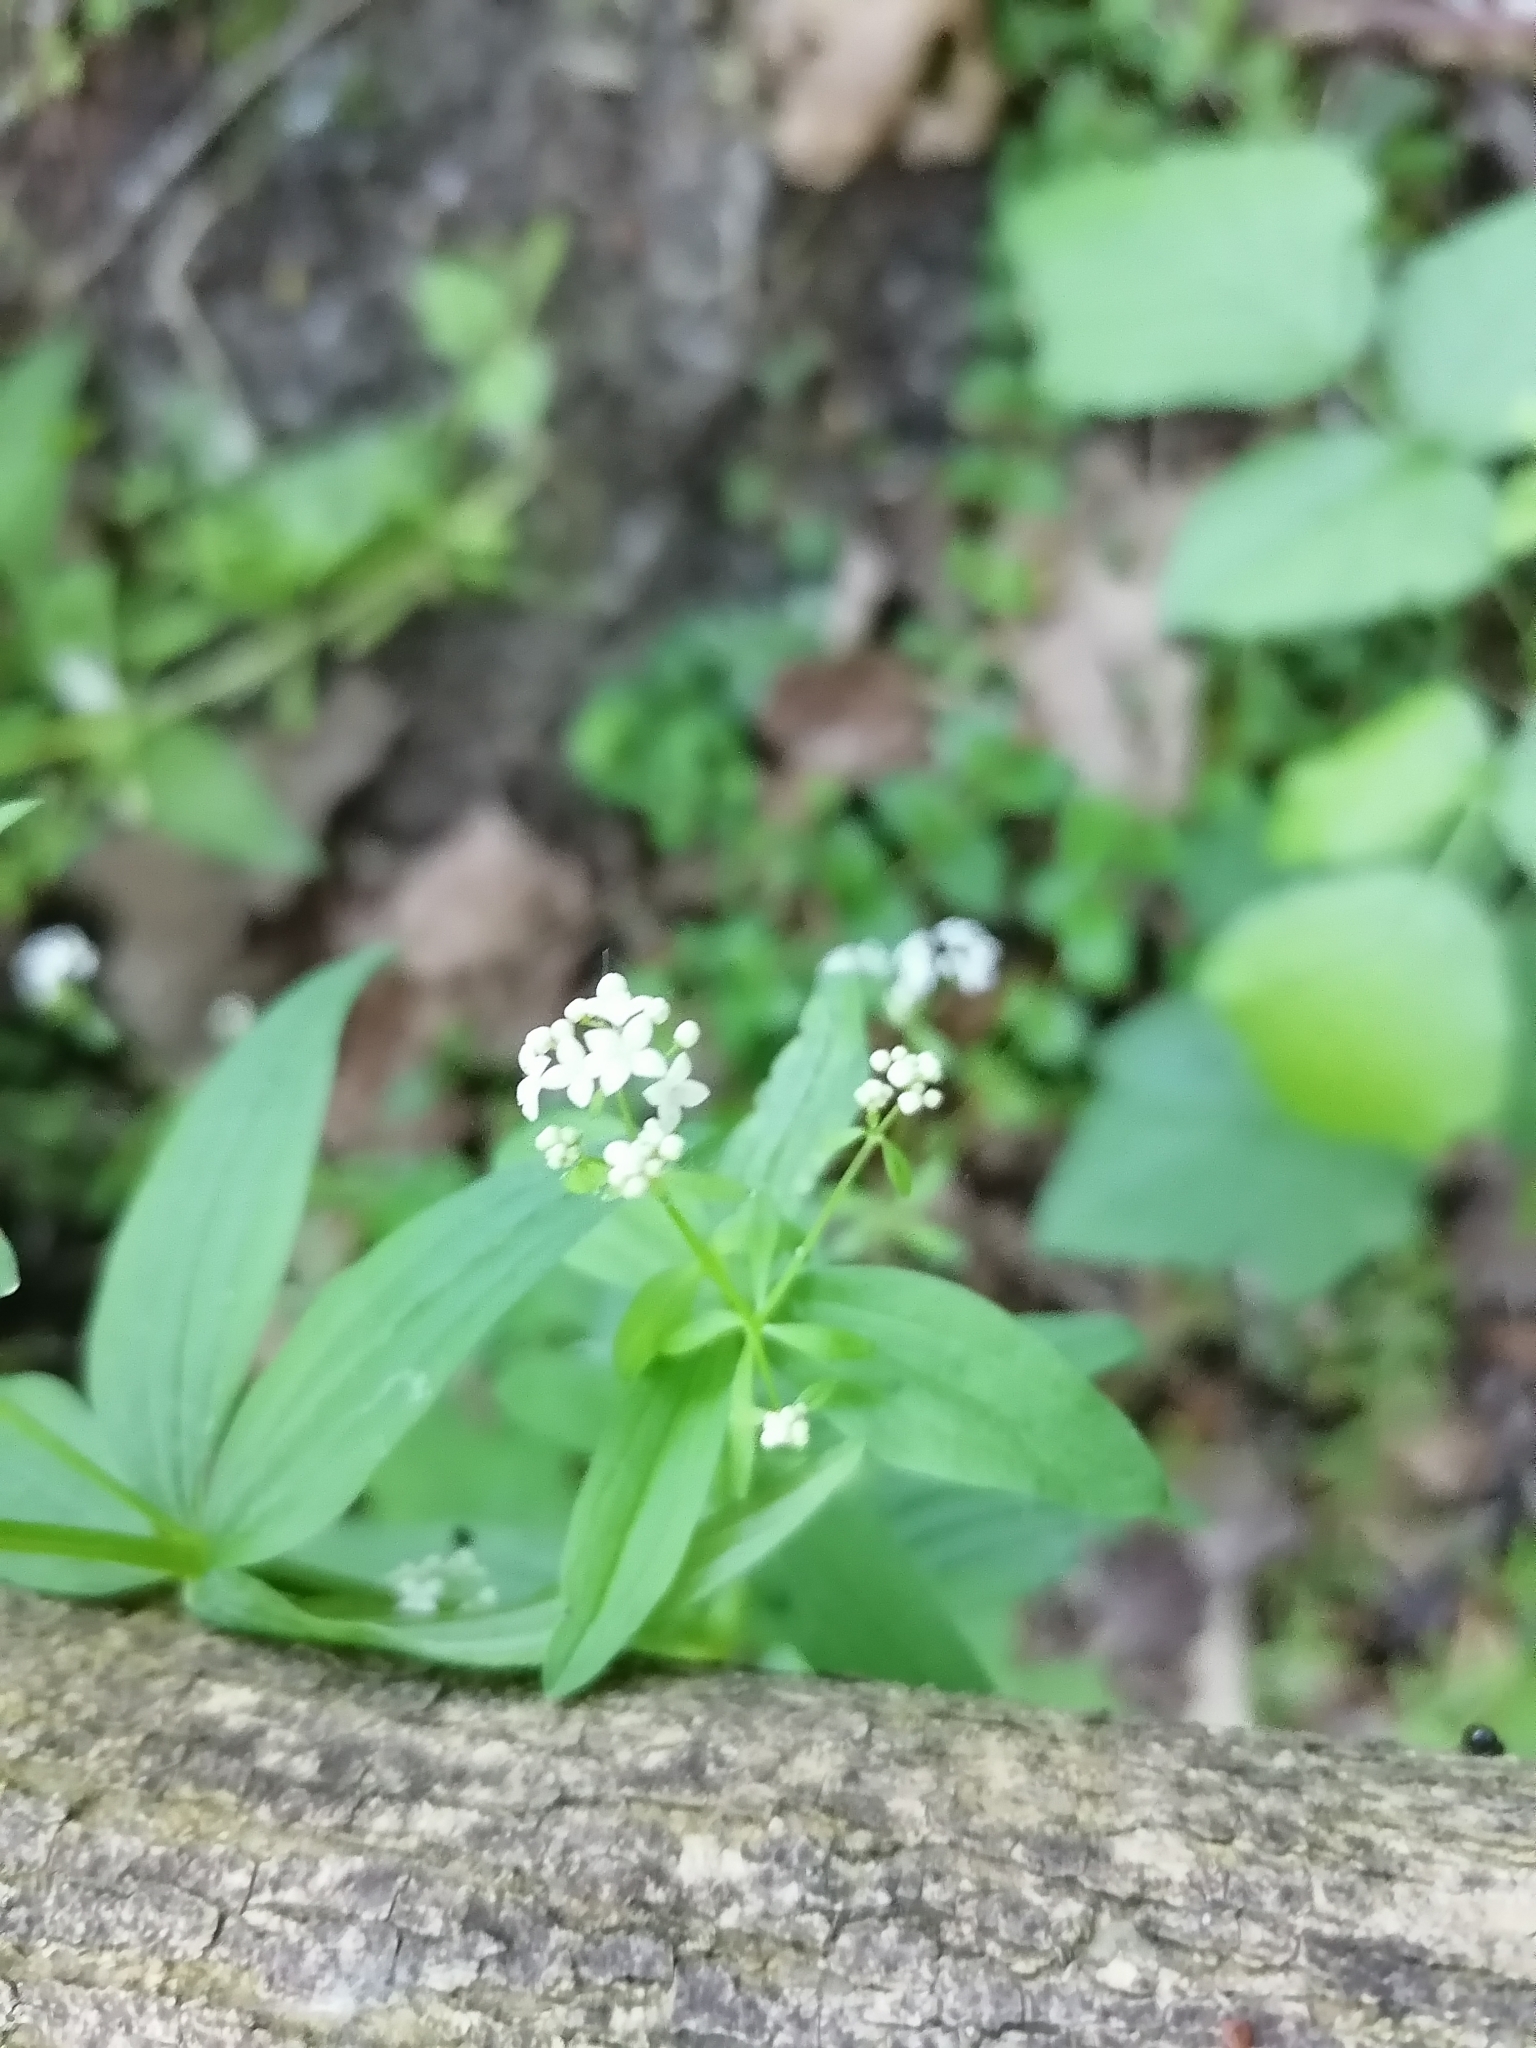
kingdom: Plantae
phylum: Tracheophyta
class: Magnoliopsida
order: Gentianales
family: Rubiaceae
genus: Galium
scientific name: Galium elongatum
